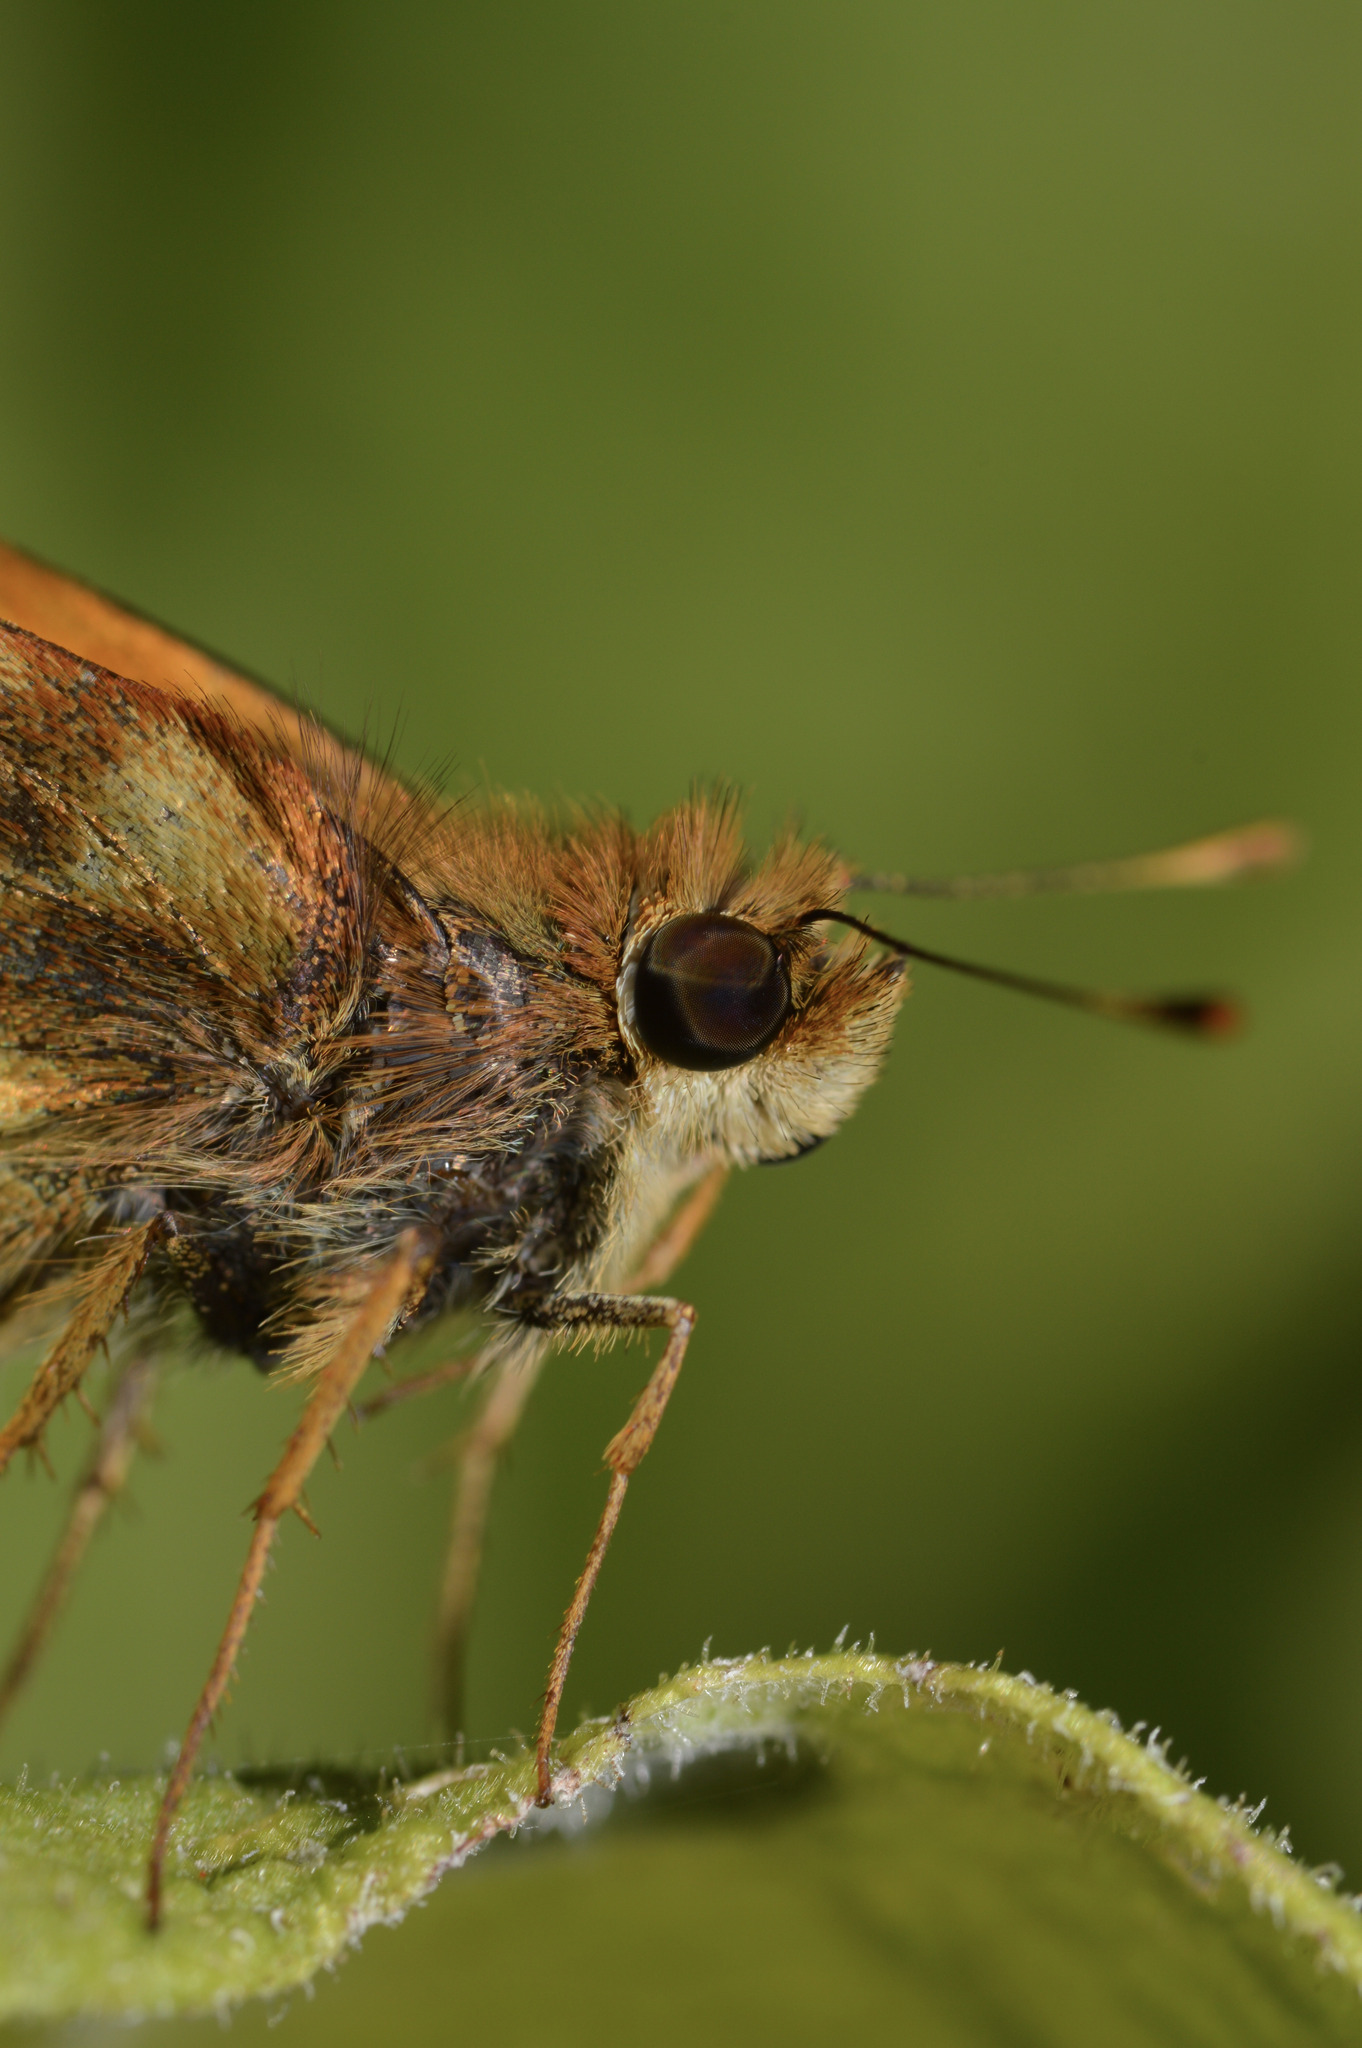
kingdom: Animalia
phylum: Arthropoda
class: Insecta
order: Lepidoptera
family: Hesperiidae
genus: Lon
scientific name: Lon zabulon
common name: Zabulon skipper
